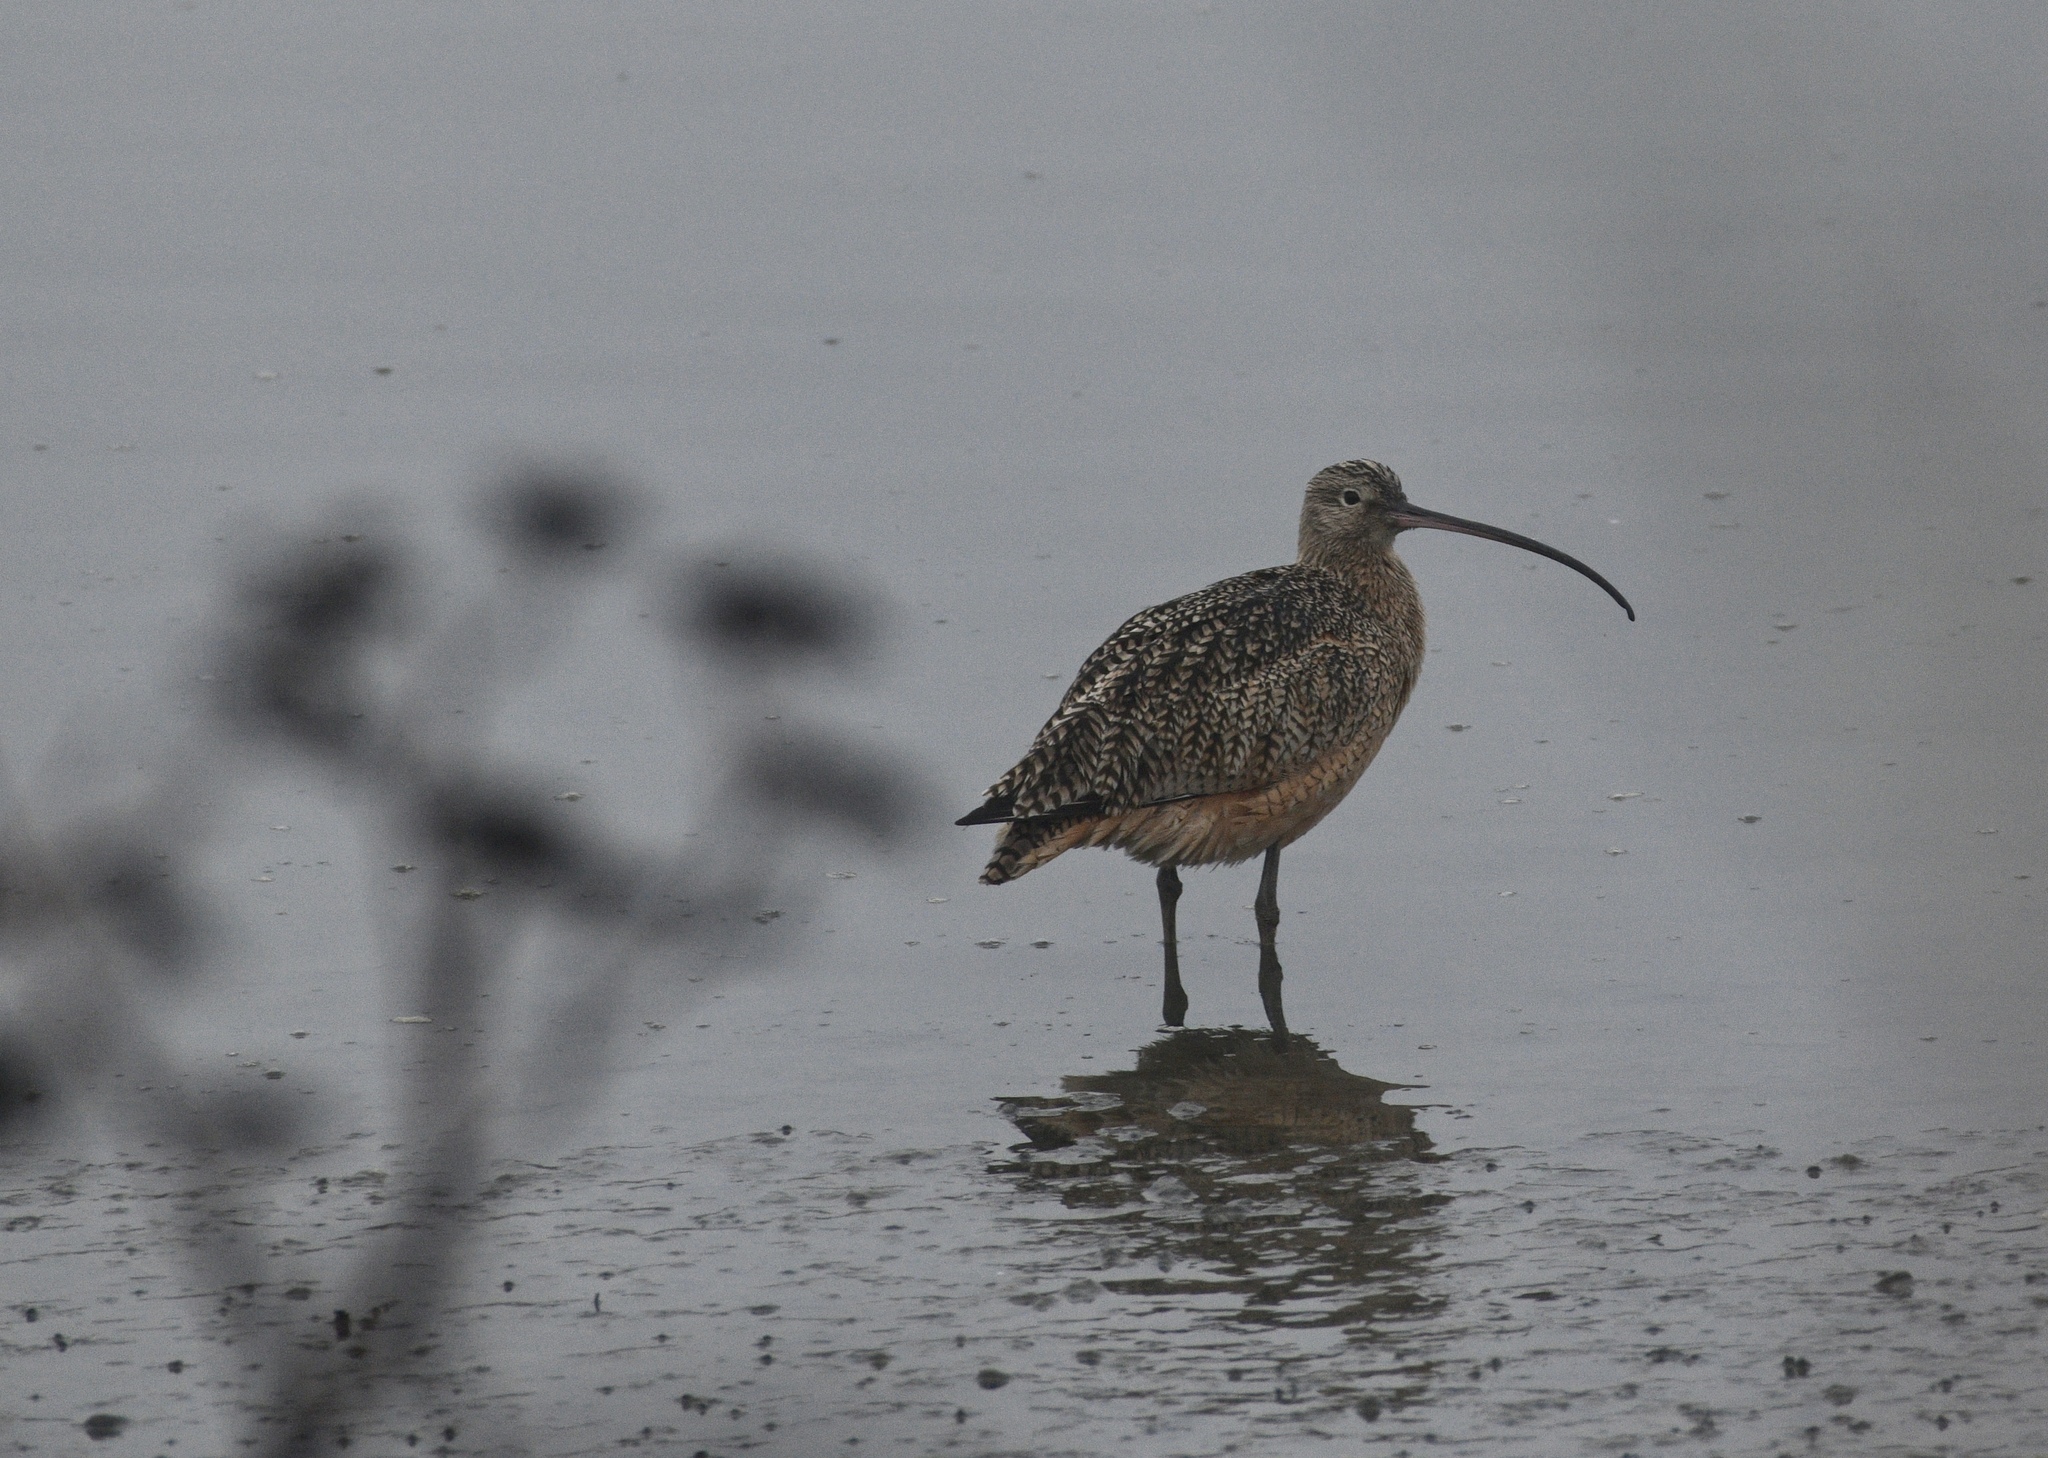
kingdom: Animalia
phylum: Chordata
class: Aves
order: Charadriiformes
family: Scolopacidae
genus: Numenius
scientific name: Numenius americanus
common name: Long-billed curlew
